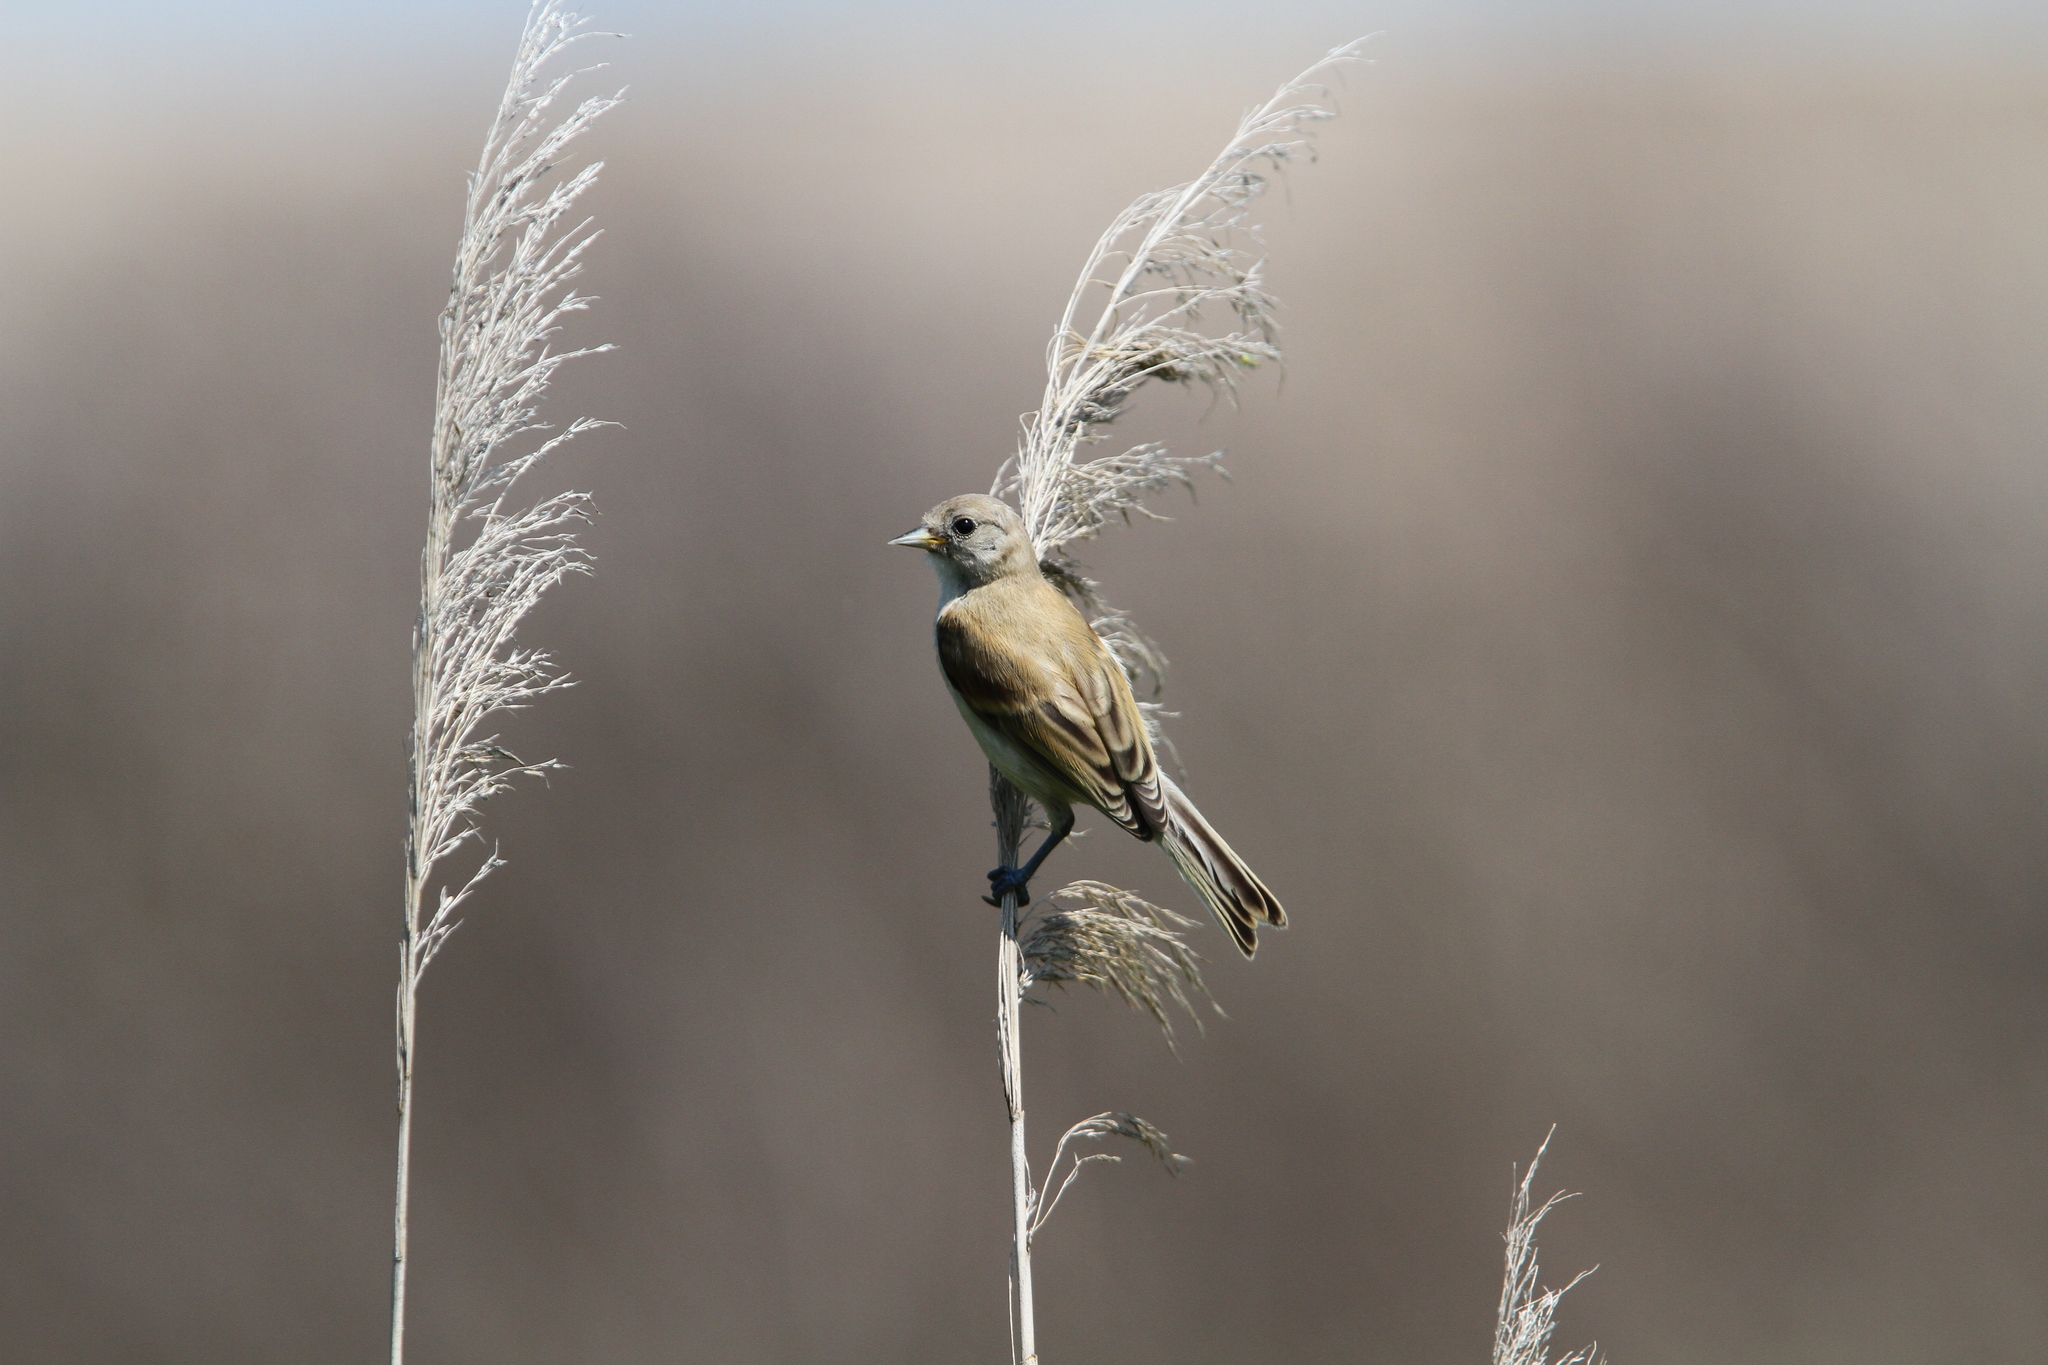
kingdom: Animalia
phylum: Chordata
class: Aves
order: Passeriformes
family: Remizidae
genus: Remiz
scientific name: Remiz pendulinus
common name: Eurasian penduline tit
